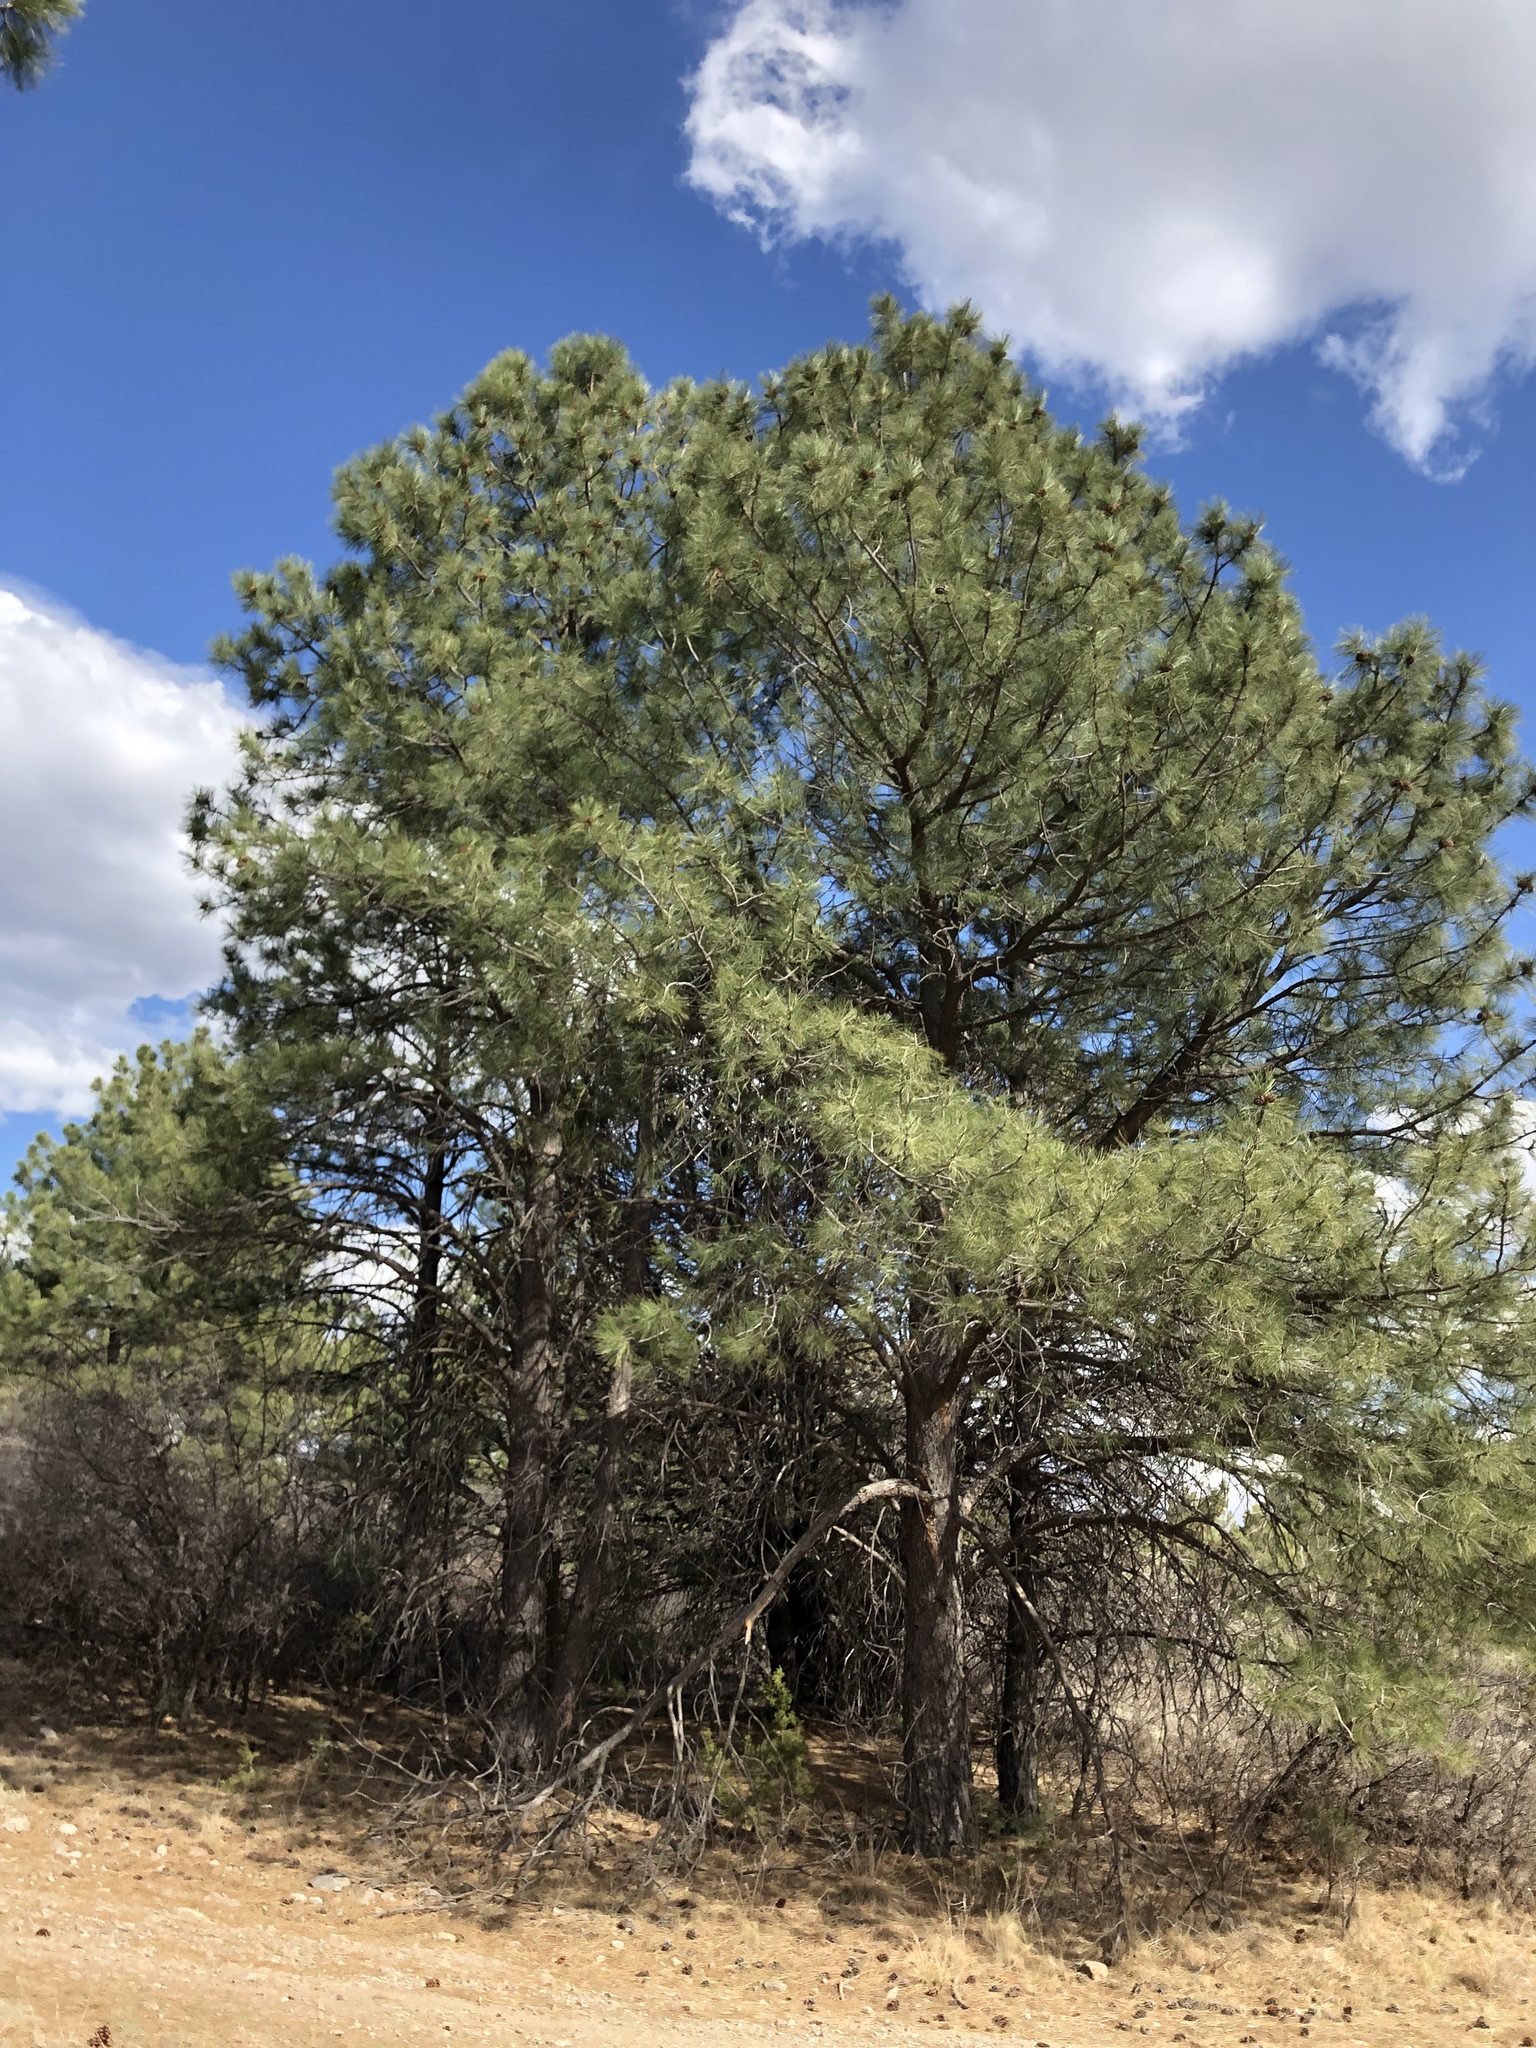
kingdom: Plantae
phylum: Tracheophyta
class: Pinopsida
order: Pinales
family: Pinaceae
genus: Pinus
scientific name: Pinus ponderosa
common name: Western yellow-pine
